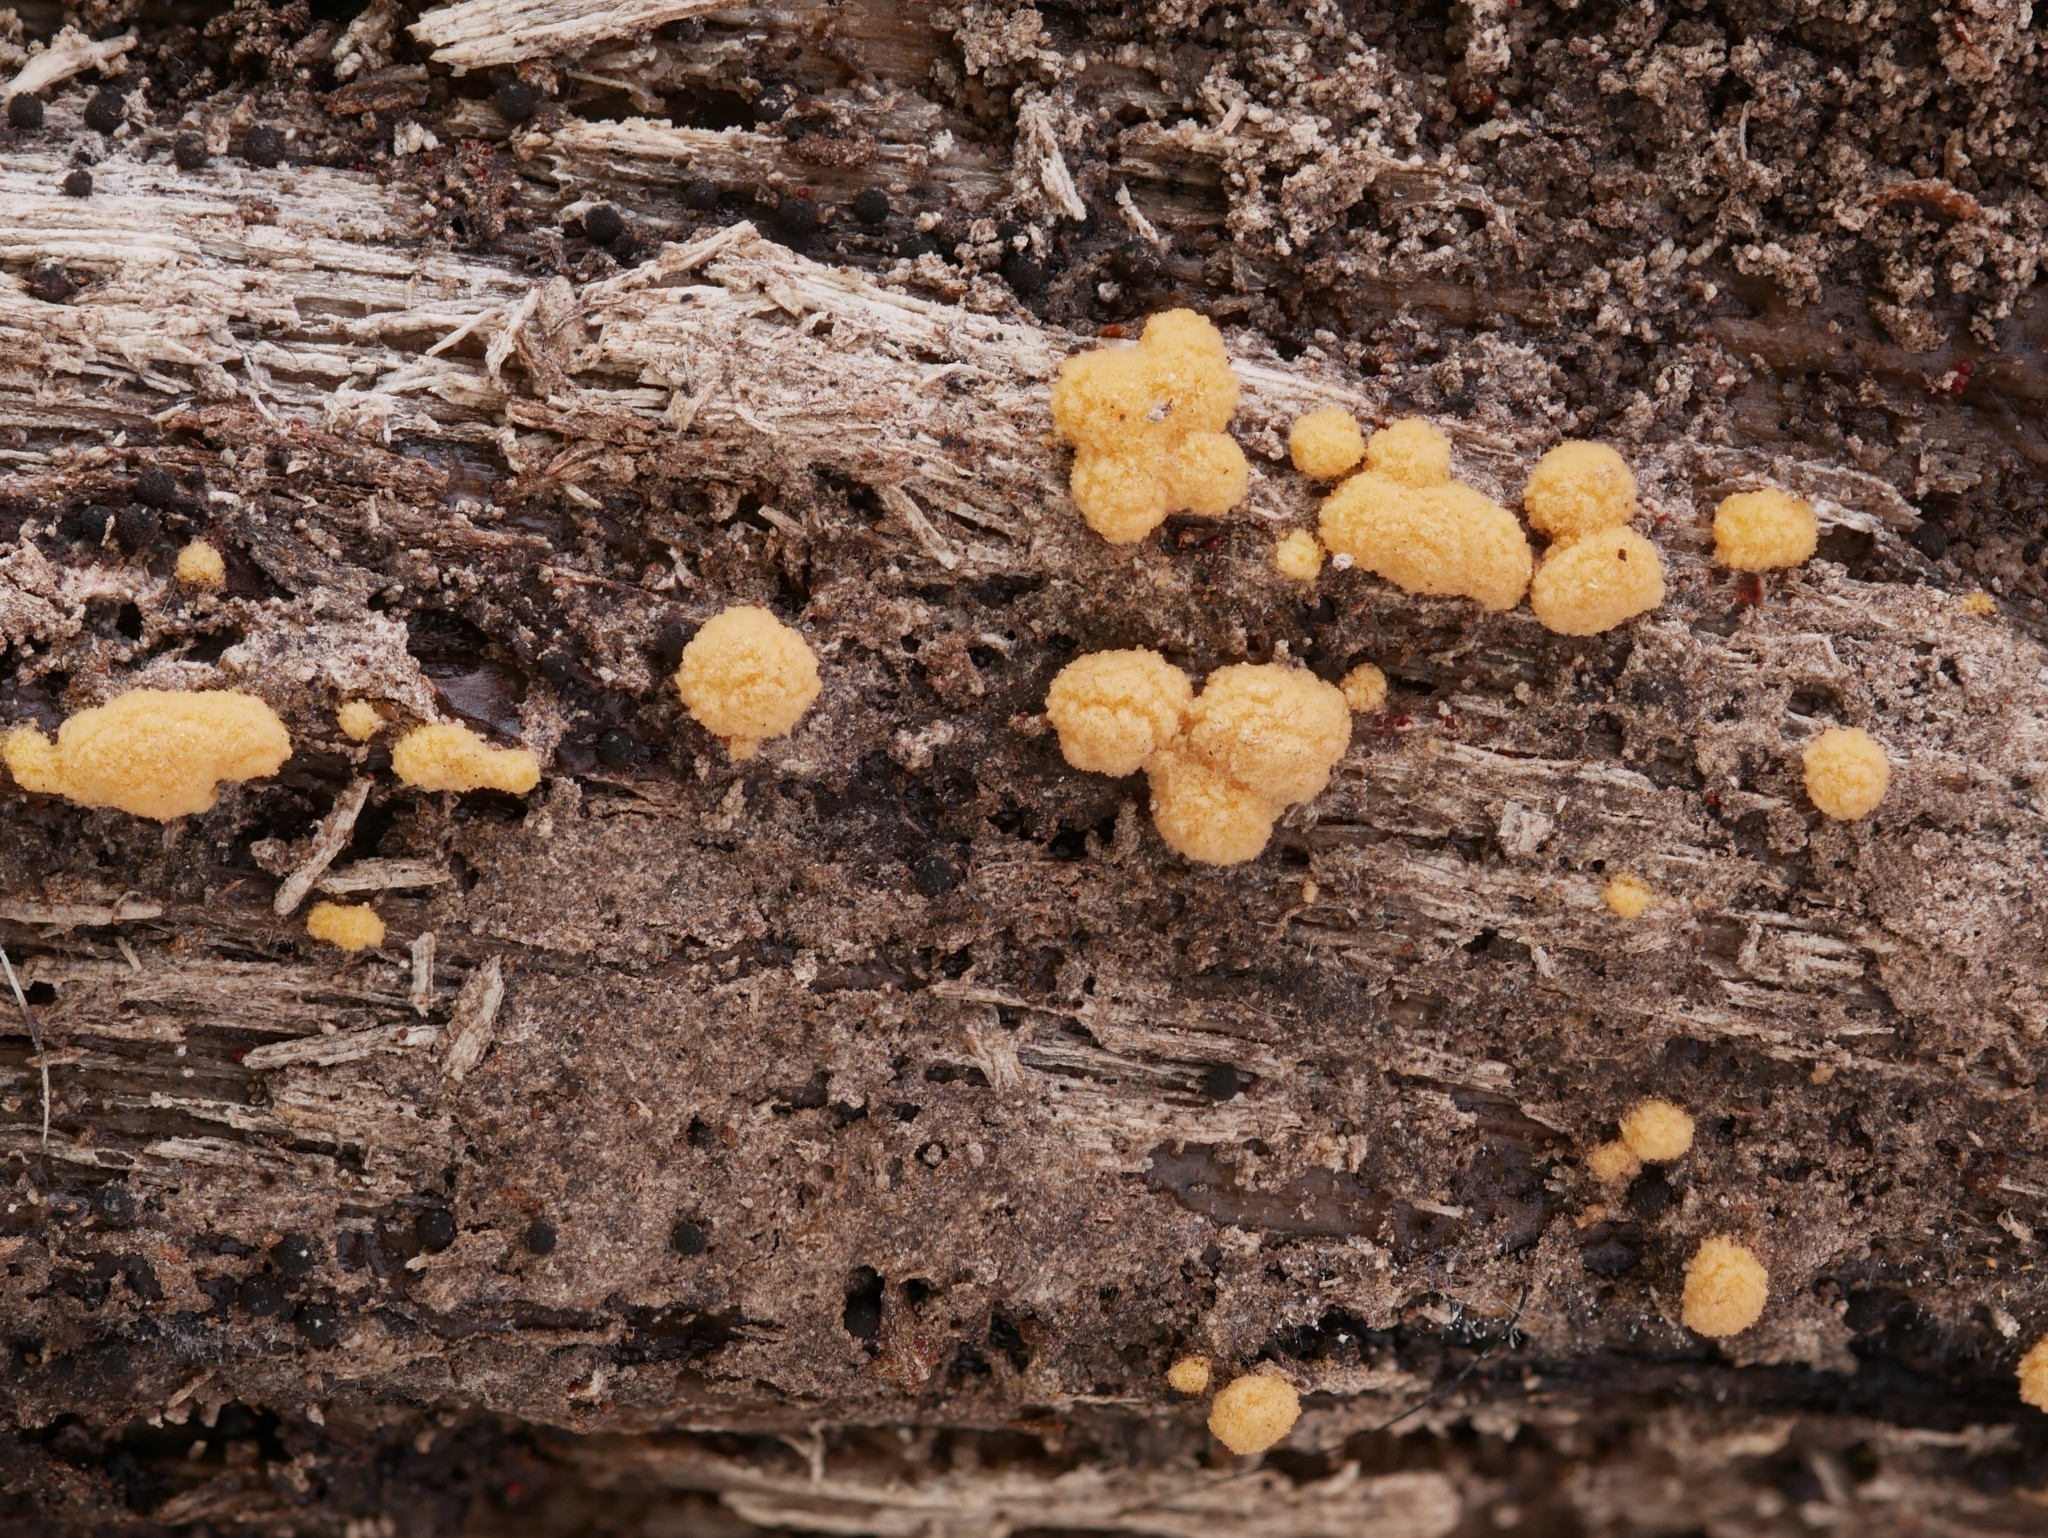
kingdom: Fungi
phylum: Ascomycota
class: Pezizomycetes
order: Pezizales
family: Pyronemataceae
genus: Sphaerosporium
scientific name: Sphaerosporium lignatile
